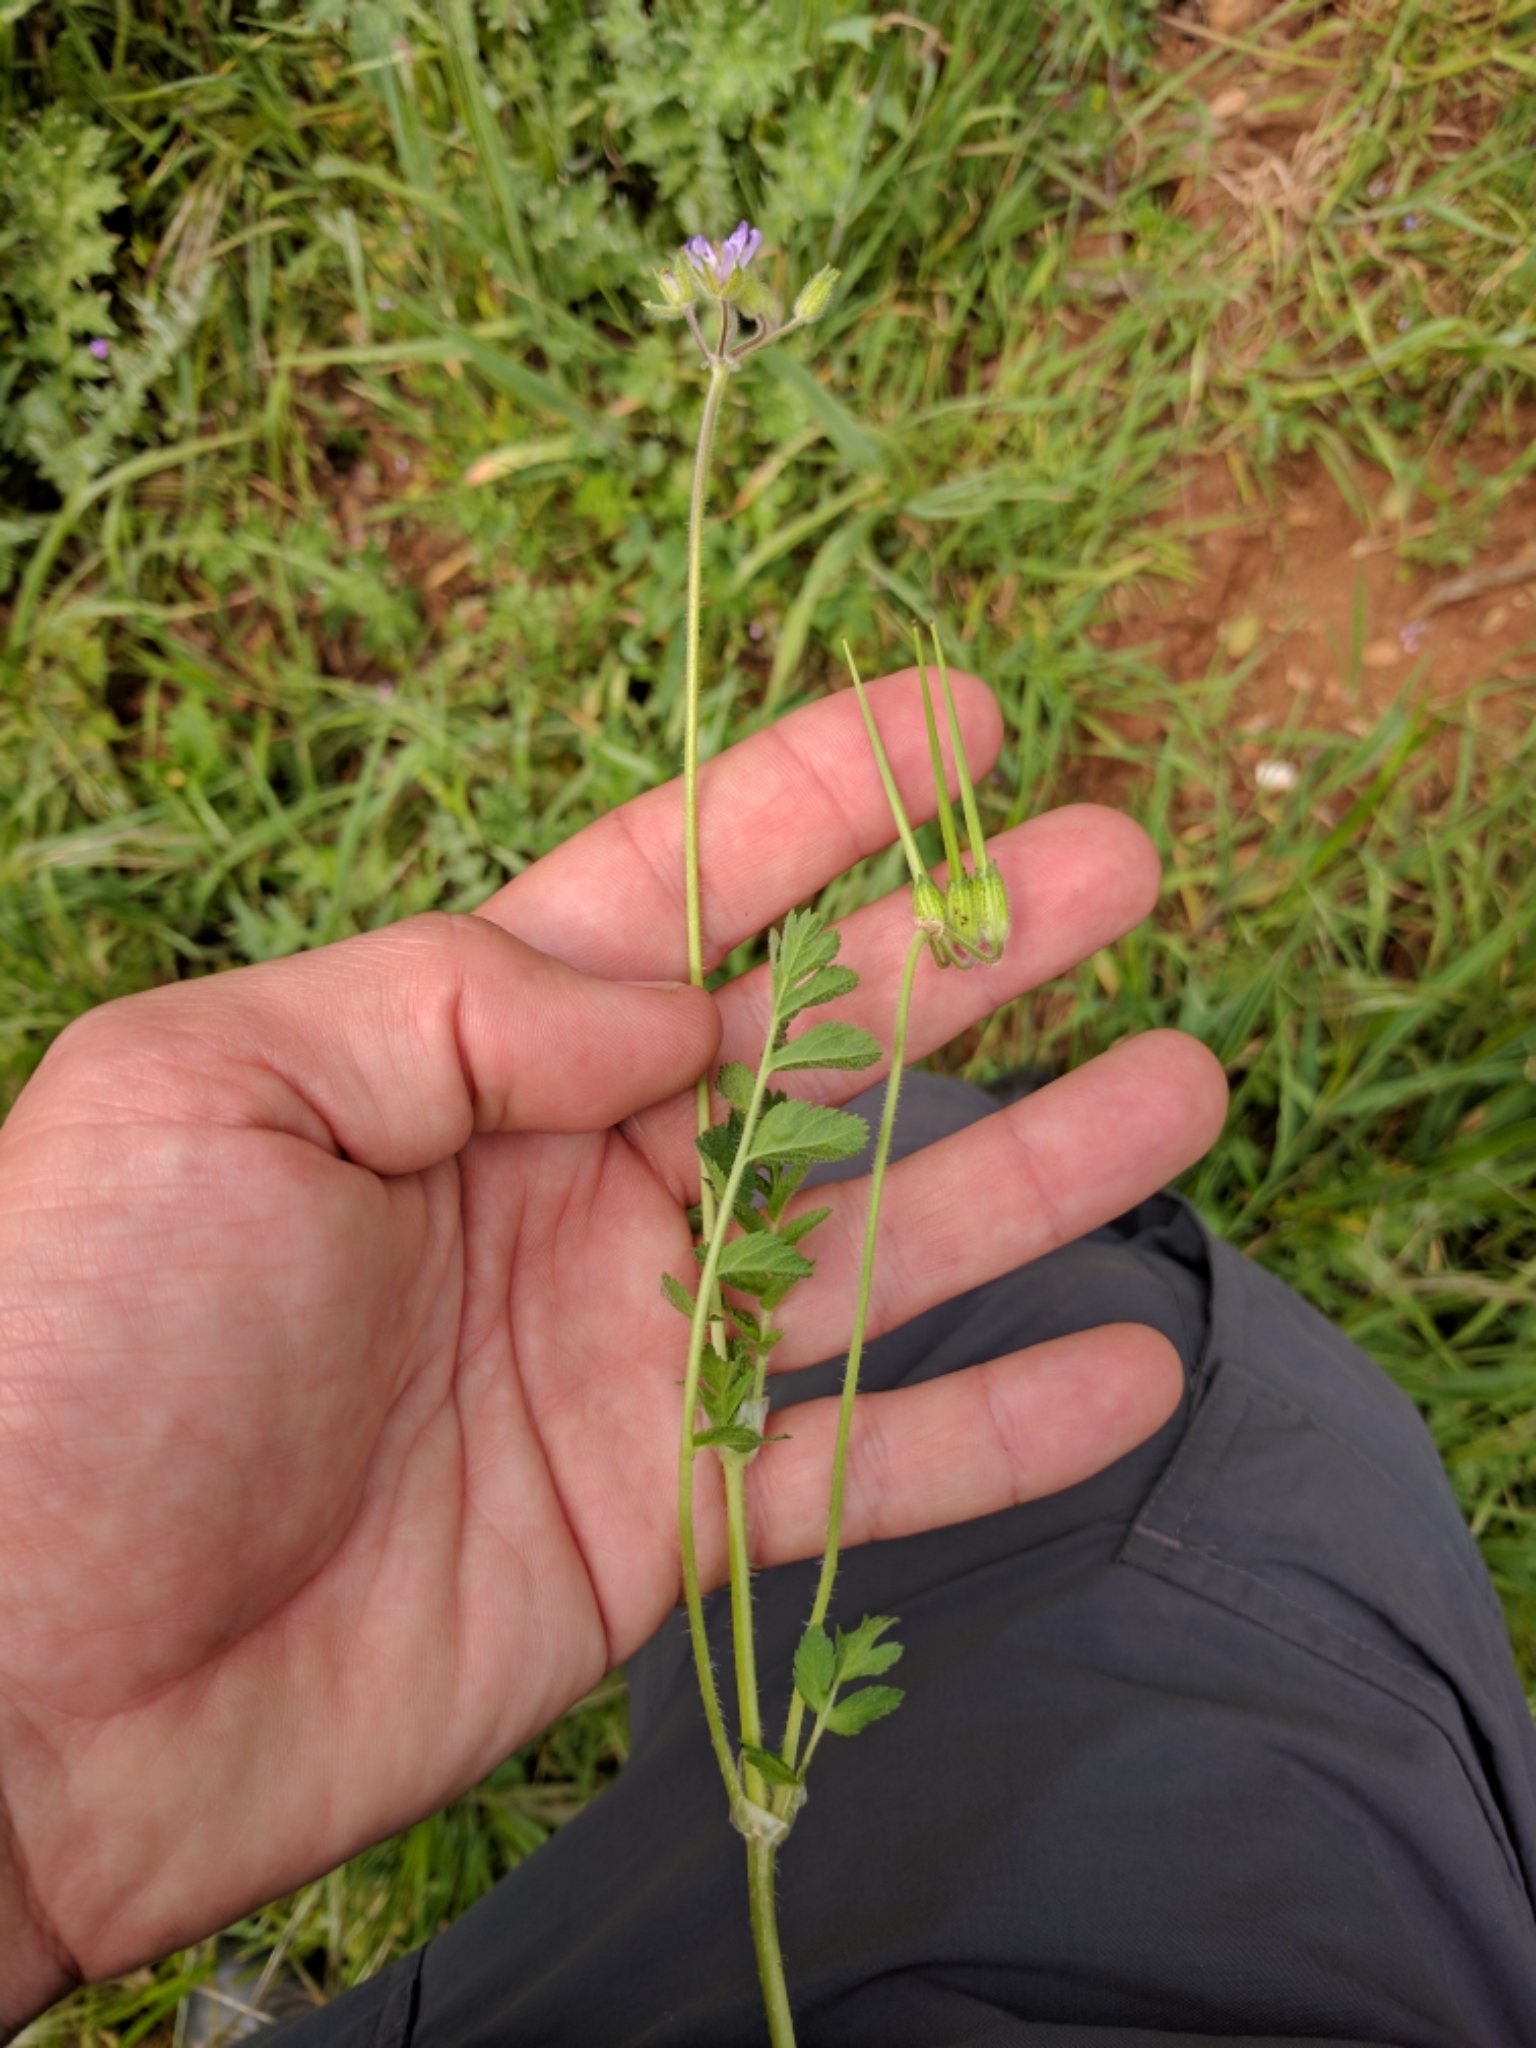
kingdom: Plantae
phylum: Tracheophyta
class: Magnoliopsida
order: Geraniales
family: Geraniaceae
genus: Erodium
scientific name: Erodium moschatum
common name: Musk stork's-bill
